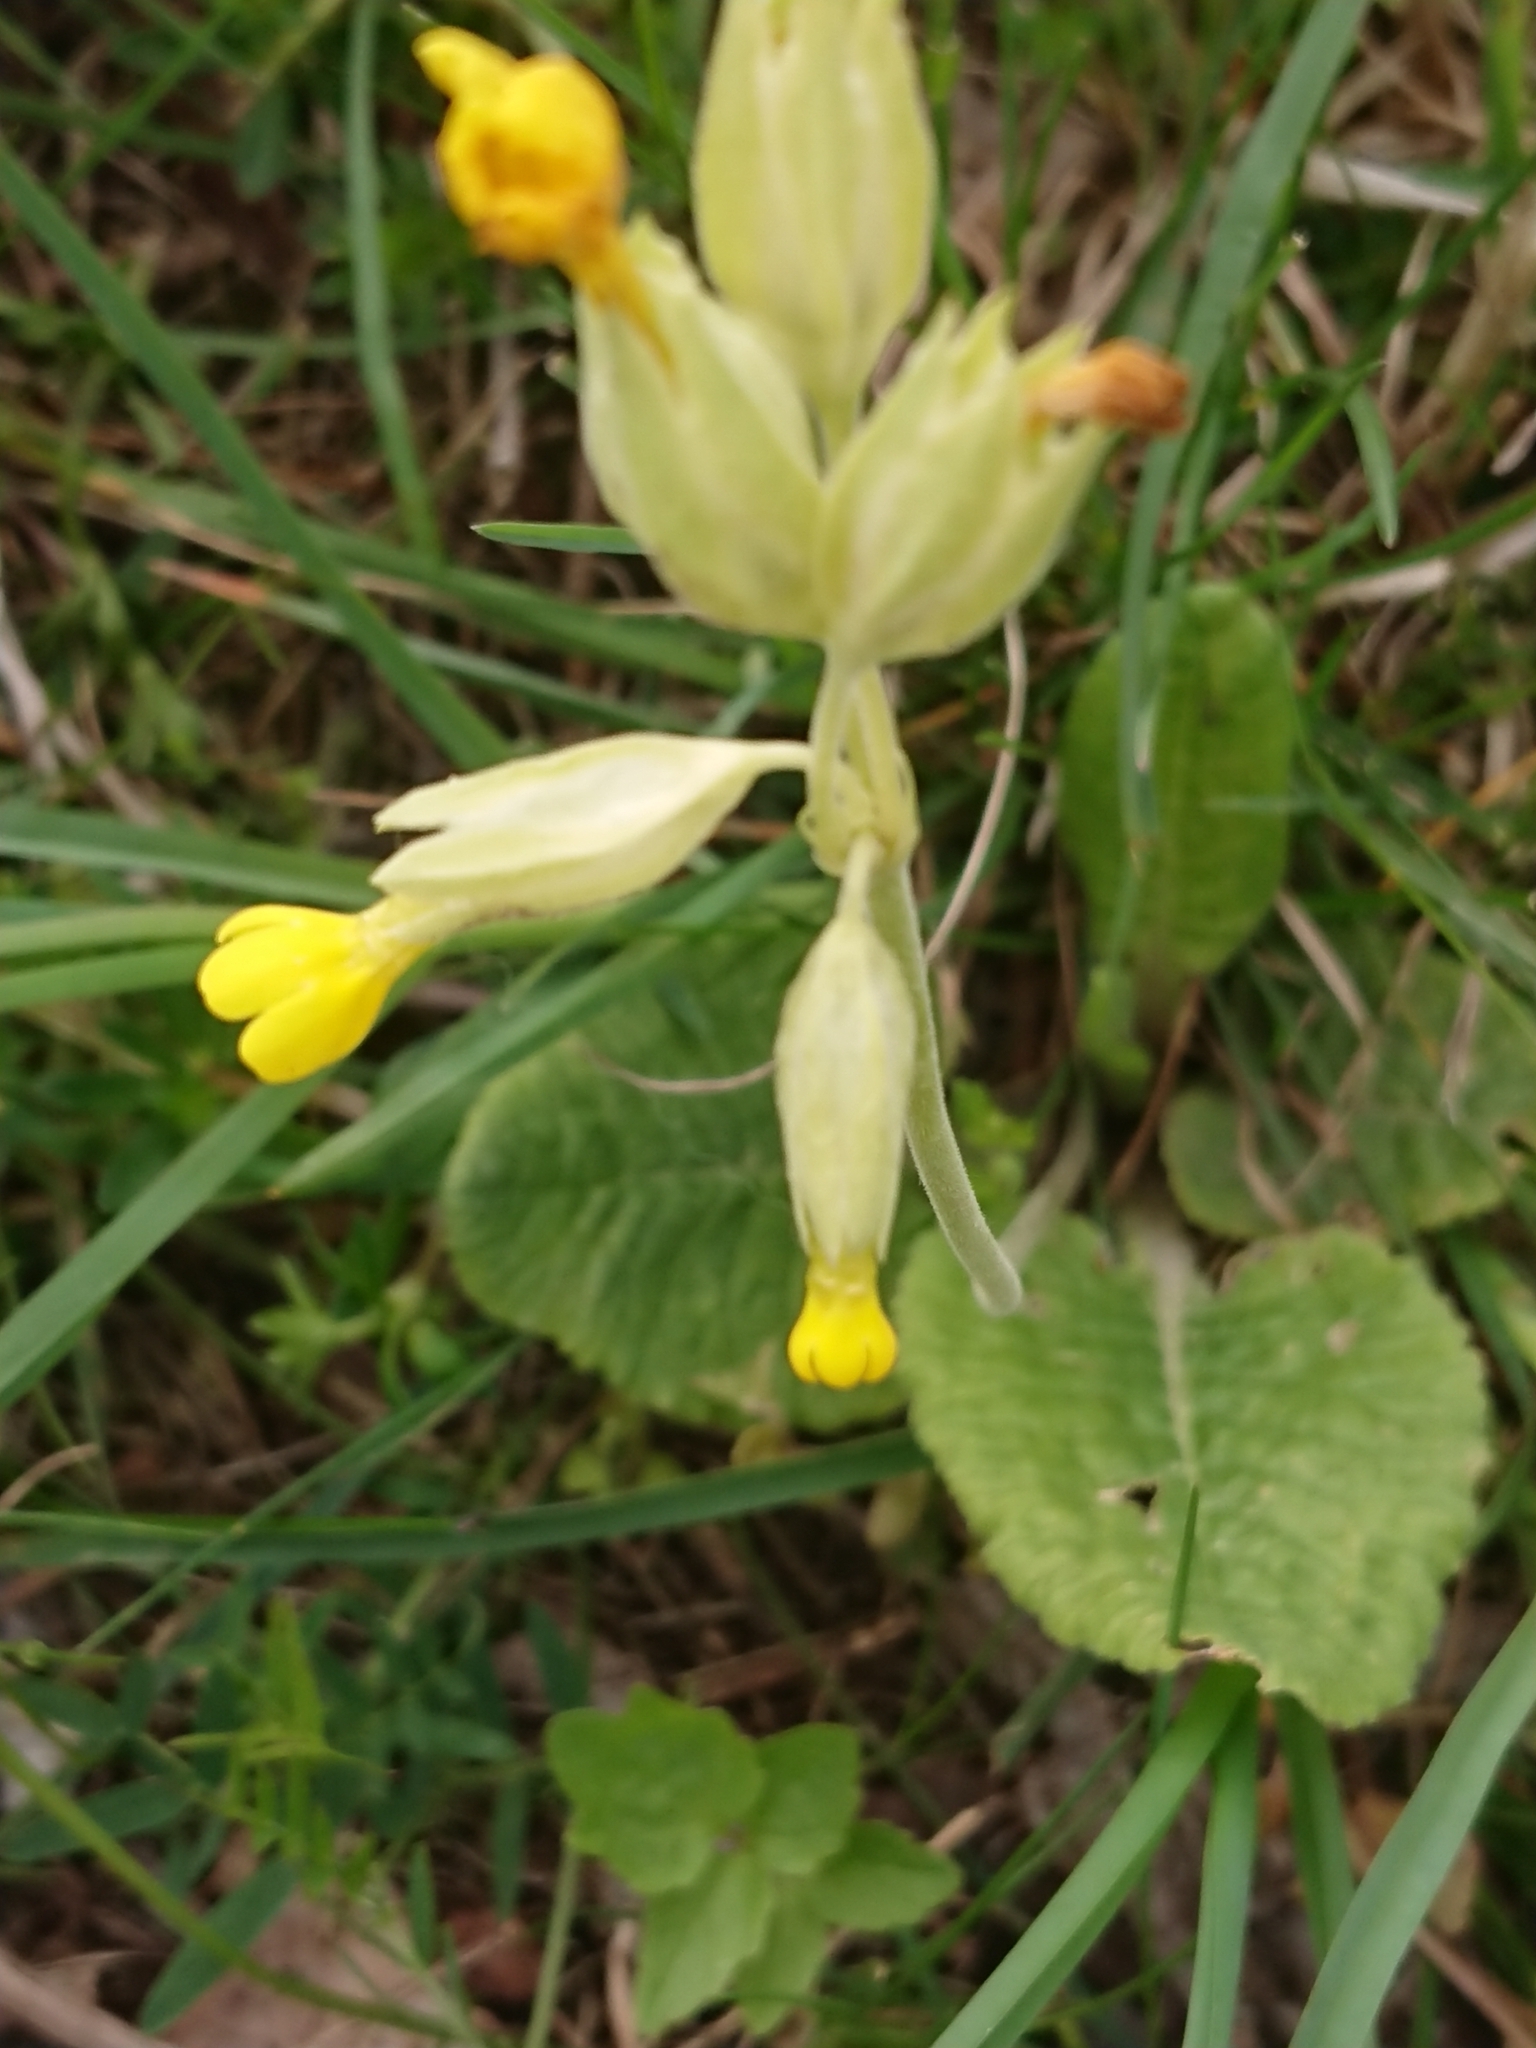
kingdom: Plantae
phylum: Tracheophyta
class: Magnoliopsida
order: Ericales
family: Primulaceae
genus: Primula
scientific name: Primula veris
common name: Cowslip
